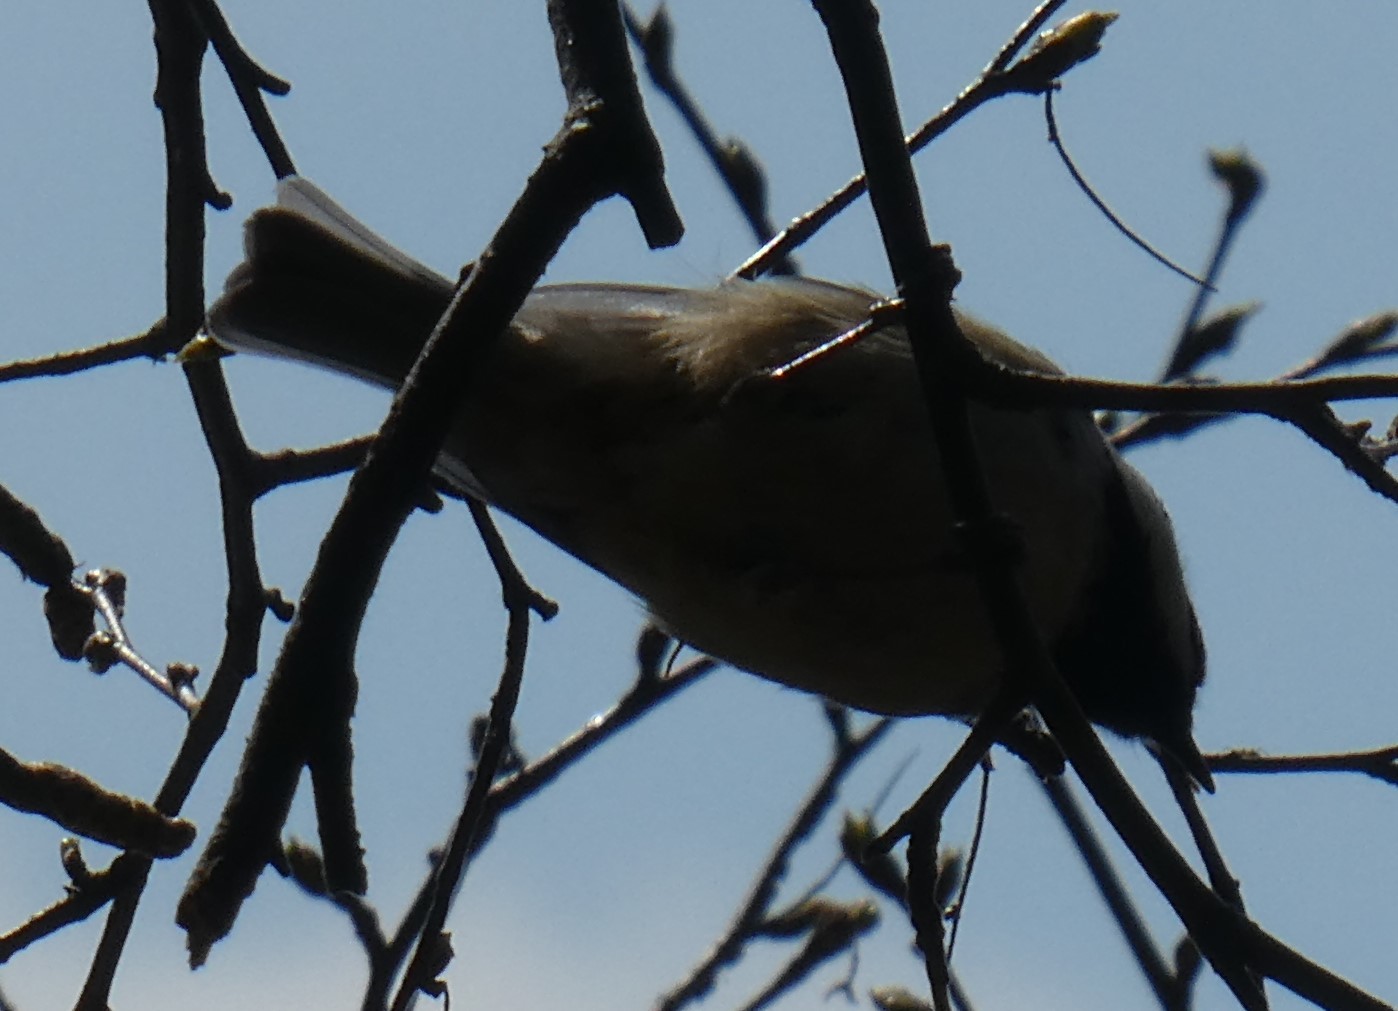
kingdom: Animalia
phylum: Chordata
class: Aves
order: Passeriformes
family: Paridae
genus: Periparus
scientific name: Periparus ater
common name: Coal tit
